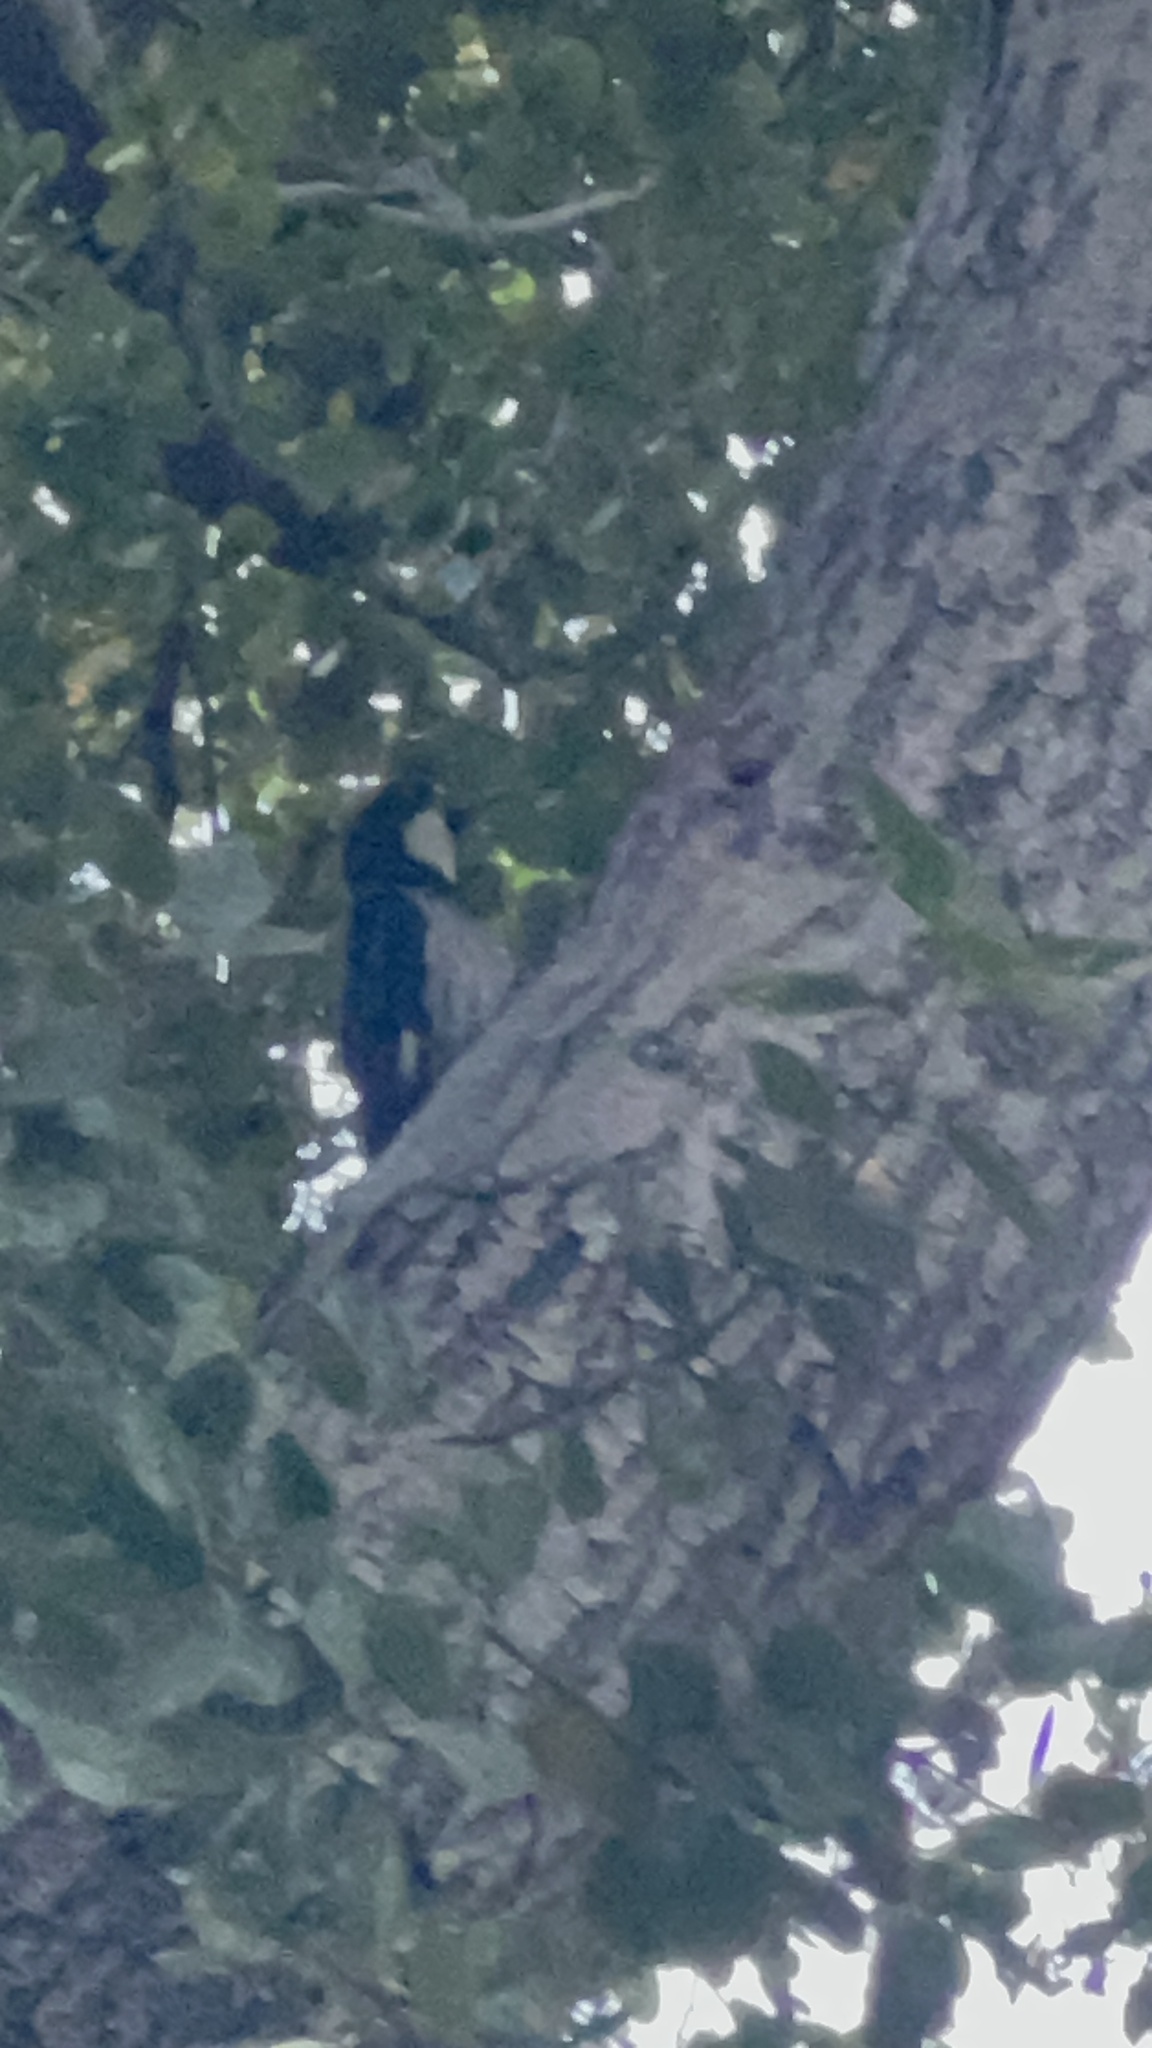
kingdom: Animalia
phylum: Chordata
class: Aves
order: Piciformes
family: Picidae
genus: Melanerpes
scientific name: Melanerpes formicivorus
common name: Acorn woodpecker
